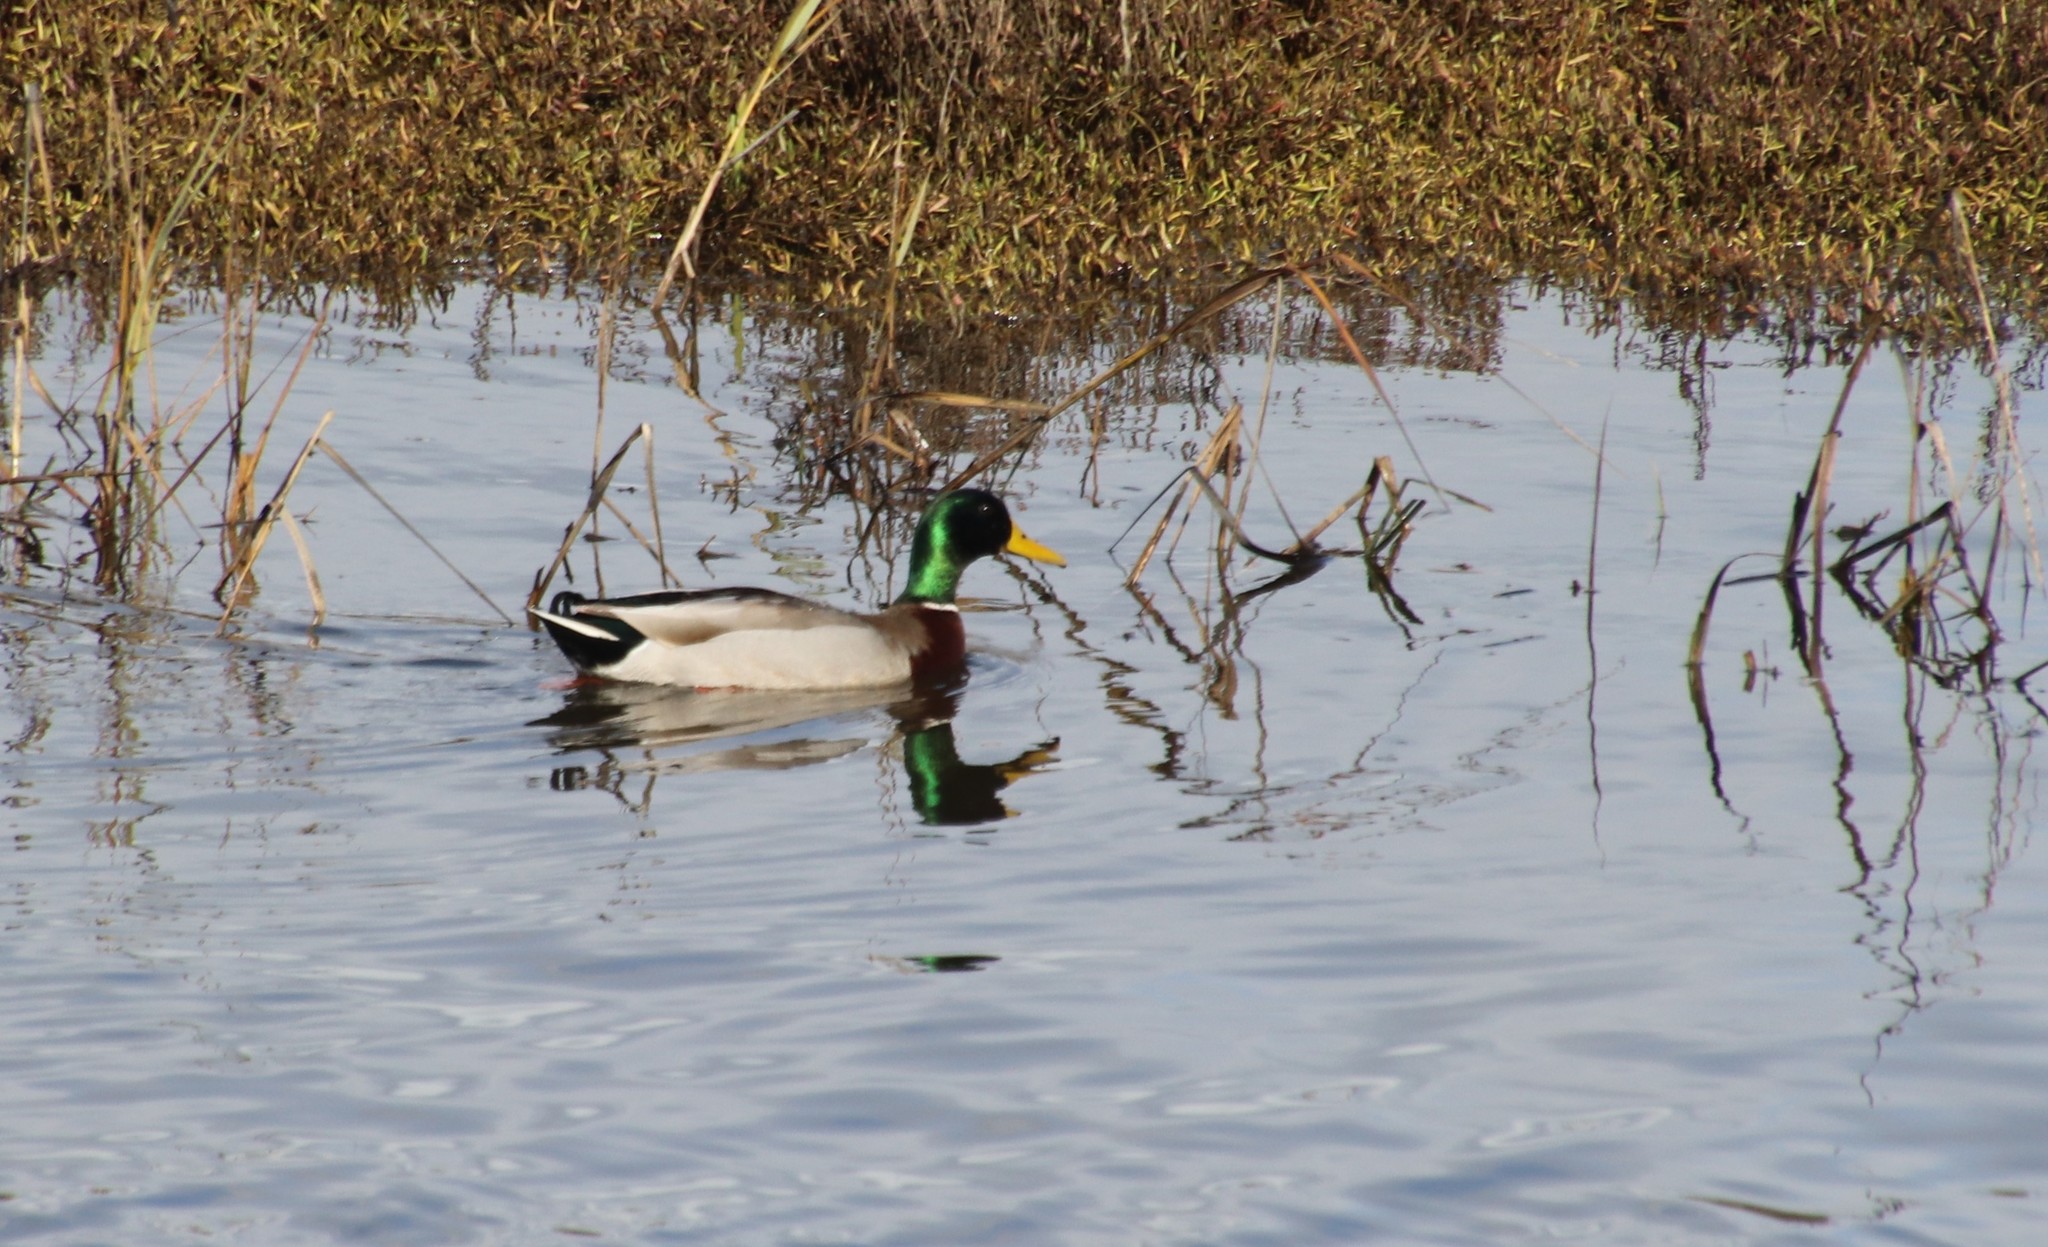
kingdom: Animalia
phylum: Chordata
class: Aves
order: Anseriformes
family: Anatidae
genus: Anas
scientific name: Anas platyrhynchos
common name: Mallard
